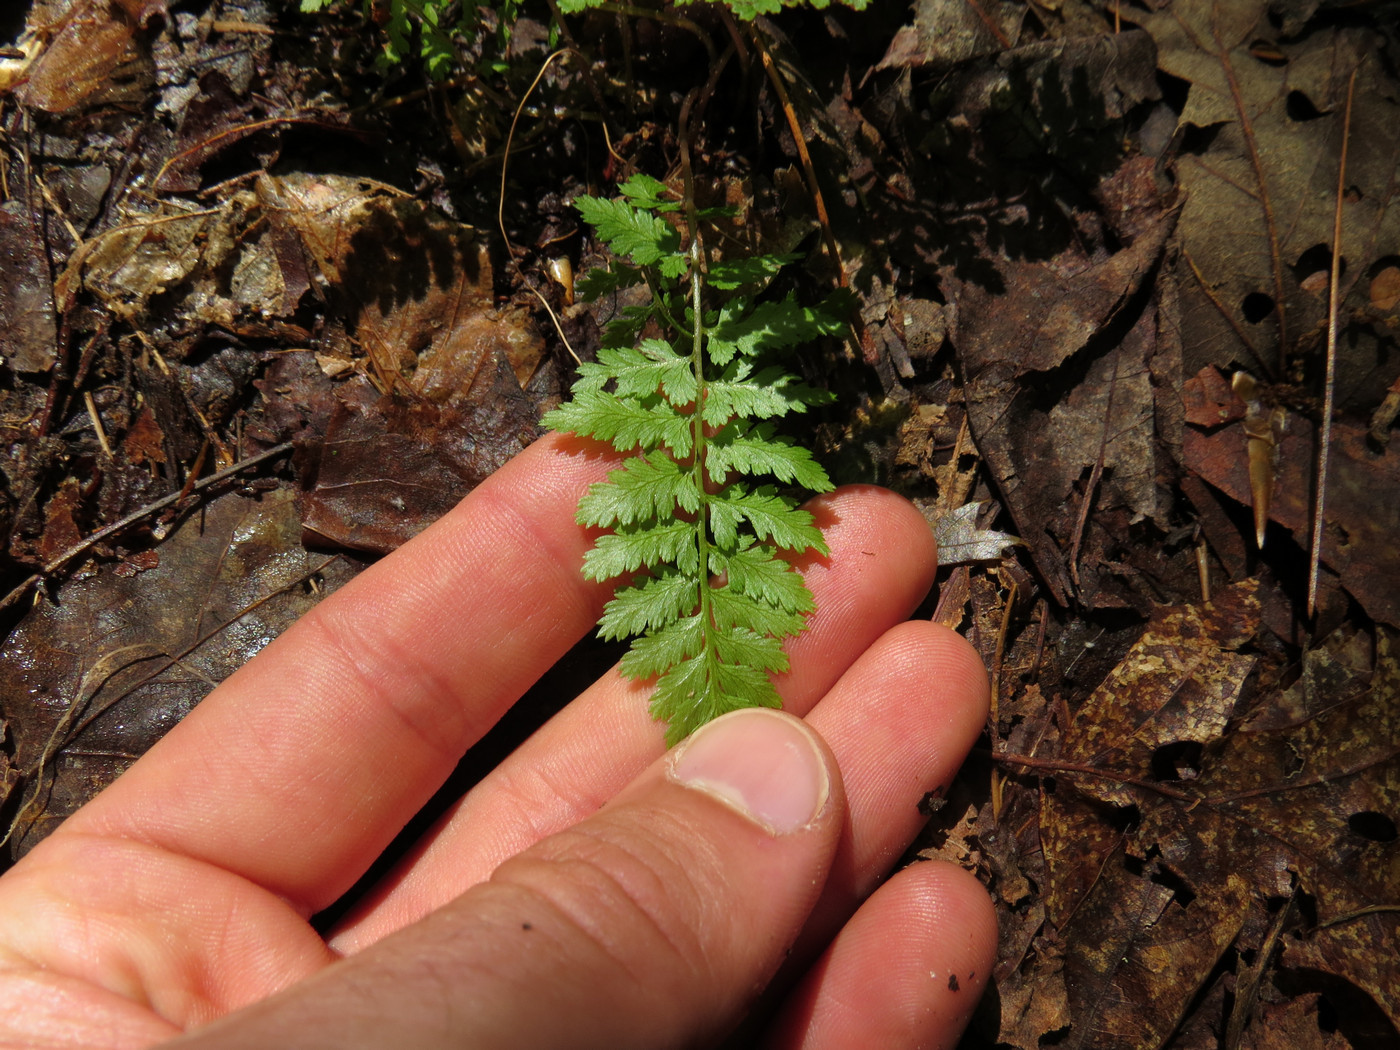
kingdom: Plantae
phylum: Tracheophyta
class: Polypodiopsida
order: Polypodiales
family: Athyriaceae
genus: Athyrium
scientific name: Athyrium asplenioides
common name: Southern lady fern
